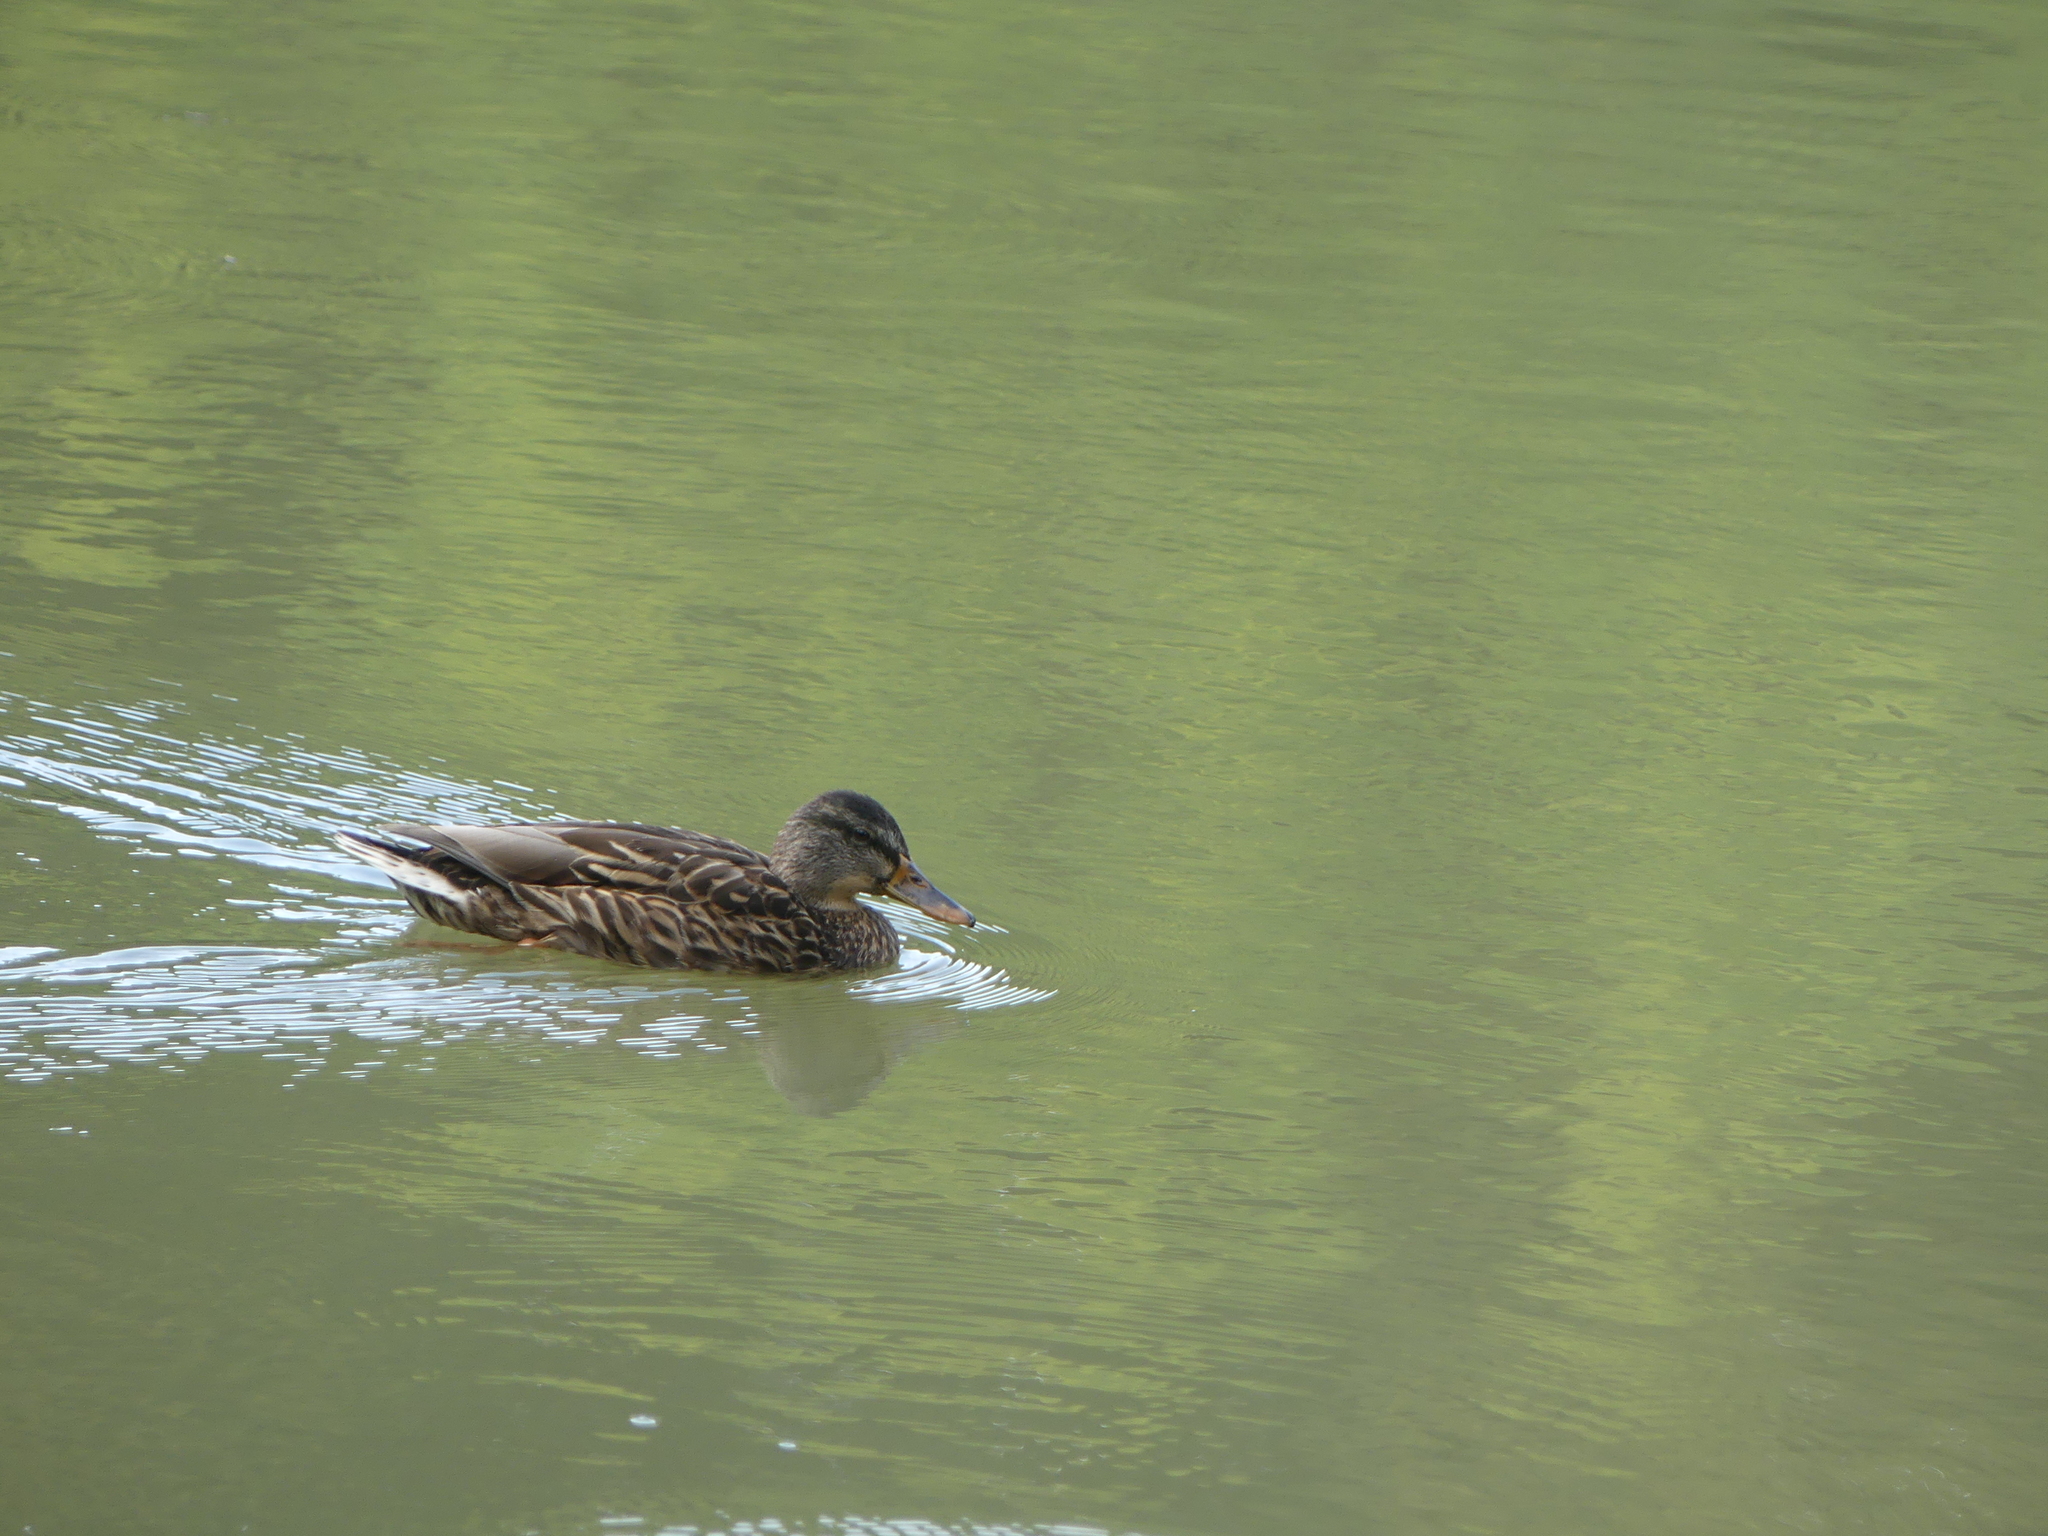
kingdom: Animalia
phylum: Chordata
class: Aves
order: Anseriformes
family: Anatidae
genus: Anas
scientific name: Anas platyrhynchos
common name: Mallard
